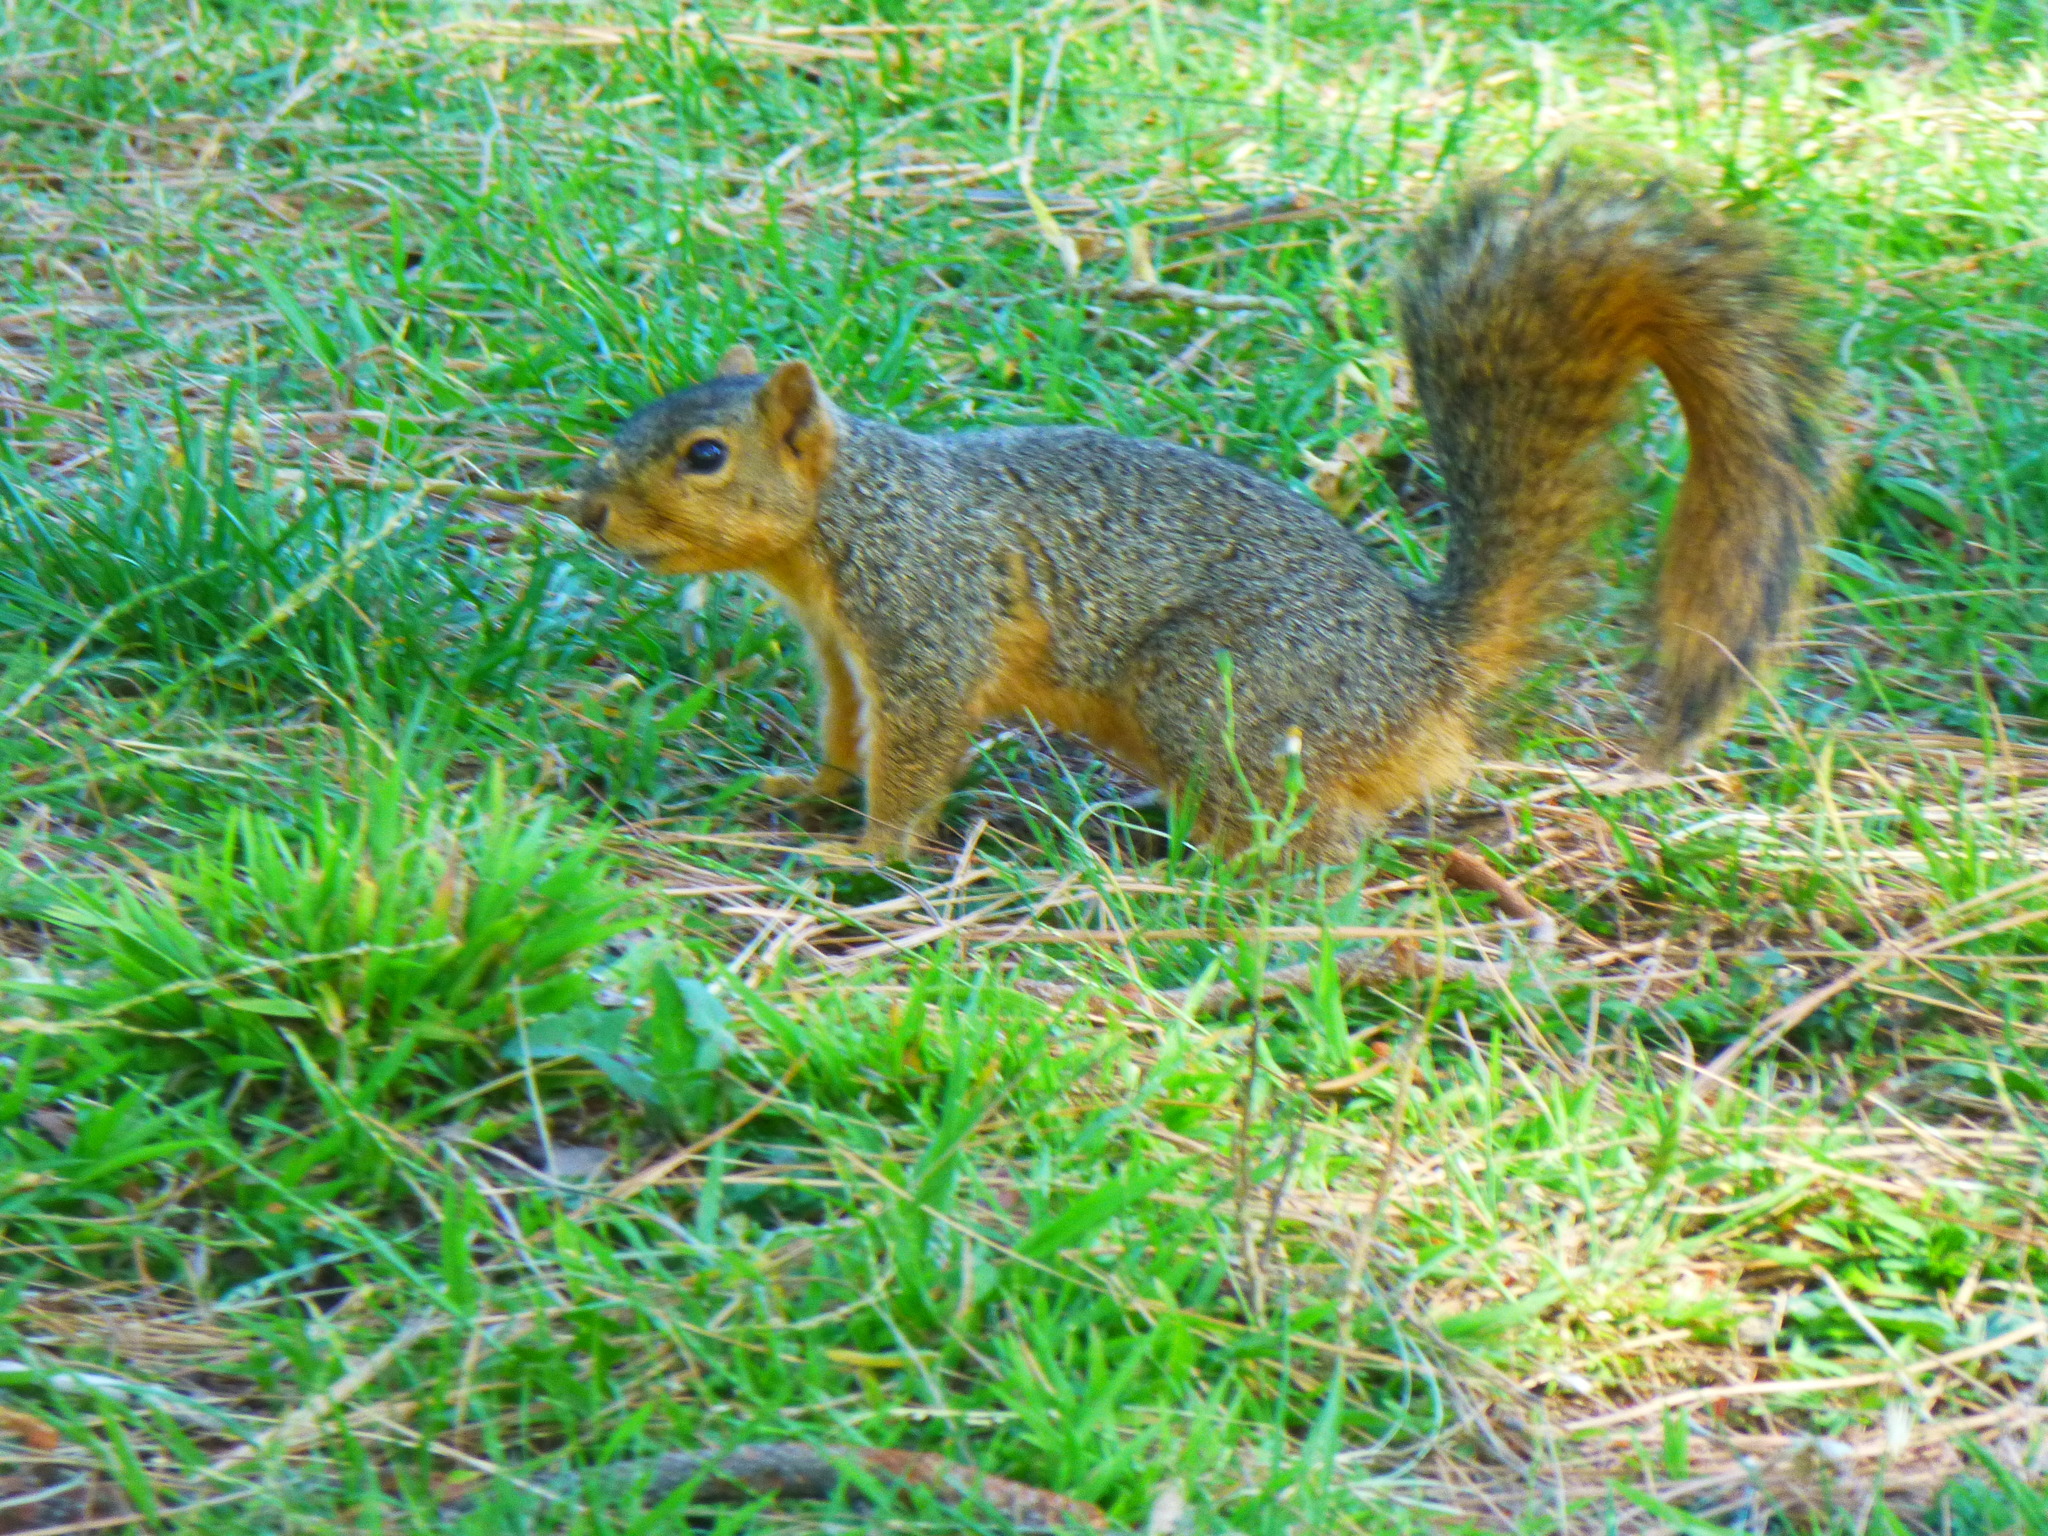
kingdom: Animalia
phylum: Chordata
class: Mammalia
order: Rodentia
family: Sciuridae
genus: Sciurus
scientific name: Sciurus niger
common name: Fox squirrel
